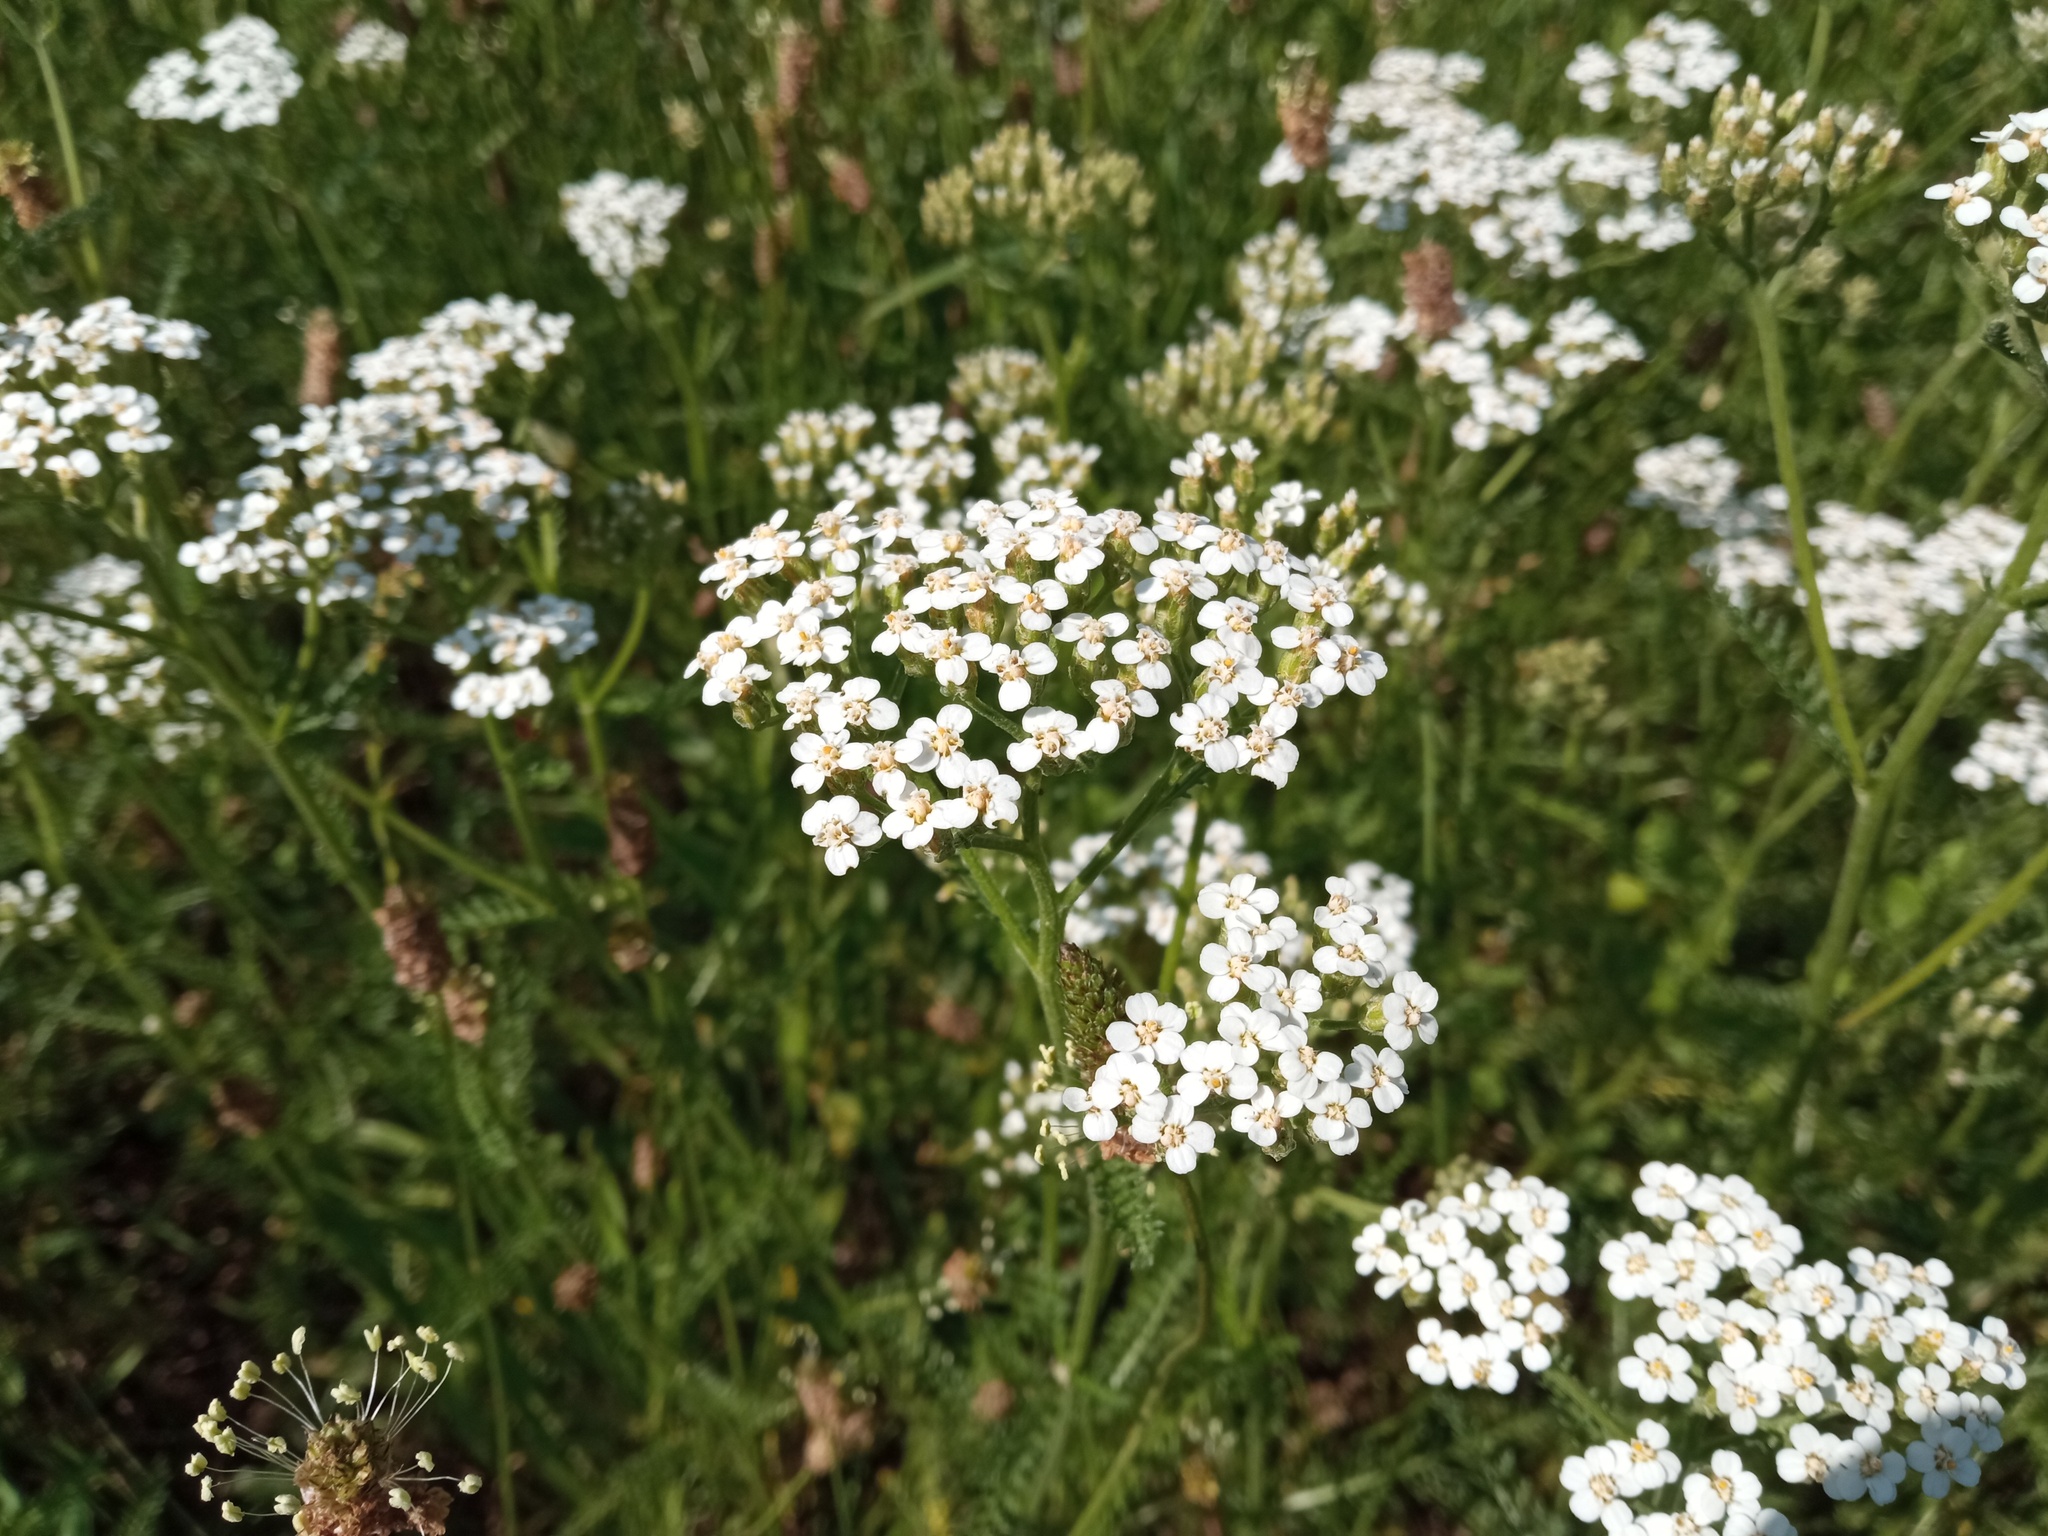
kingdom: Plantae
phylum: Tracheophyta
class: Magnoliopsida
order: Asterales
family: Asteraceae
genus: Achillea
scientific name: Achillea millefolium
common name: Yarrow
